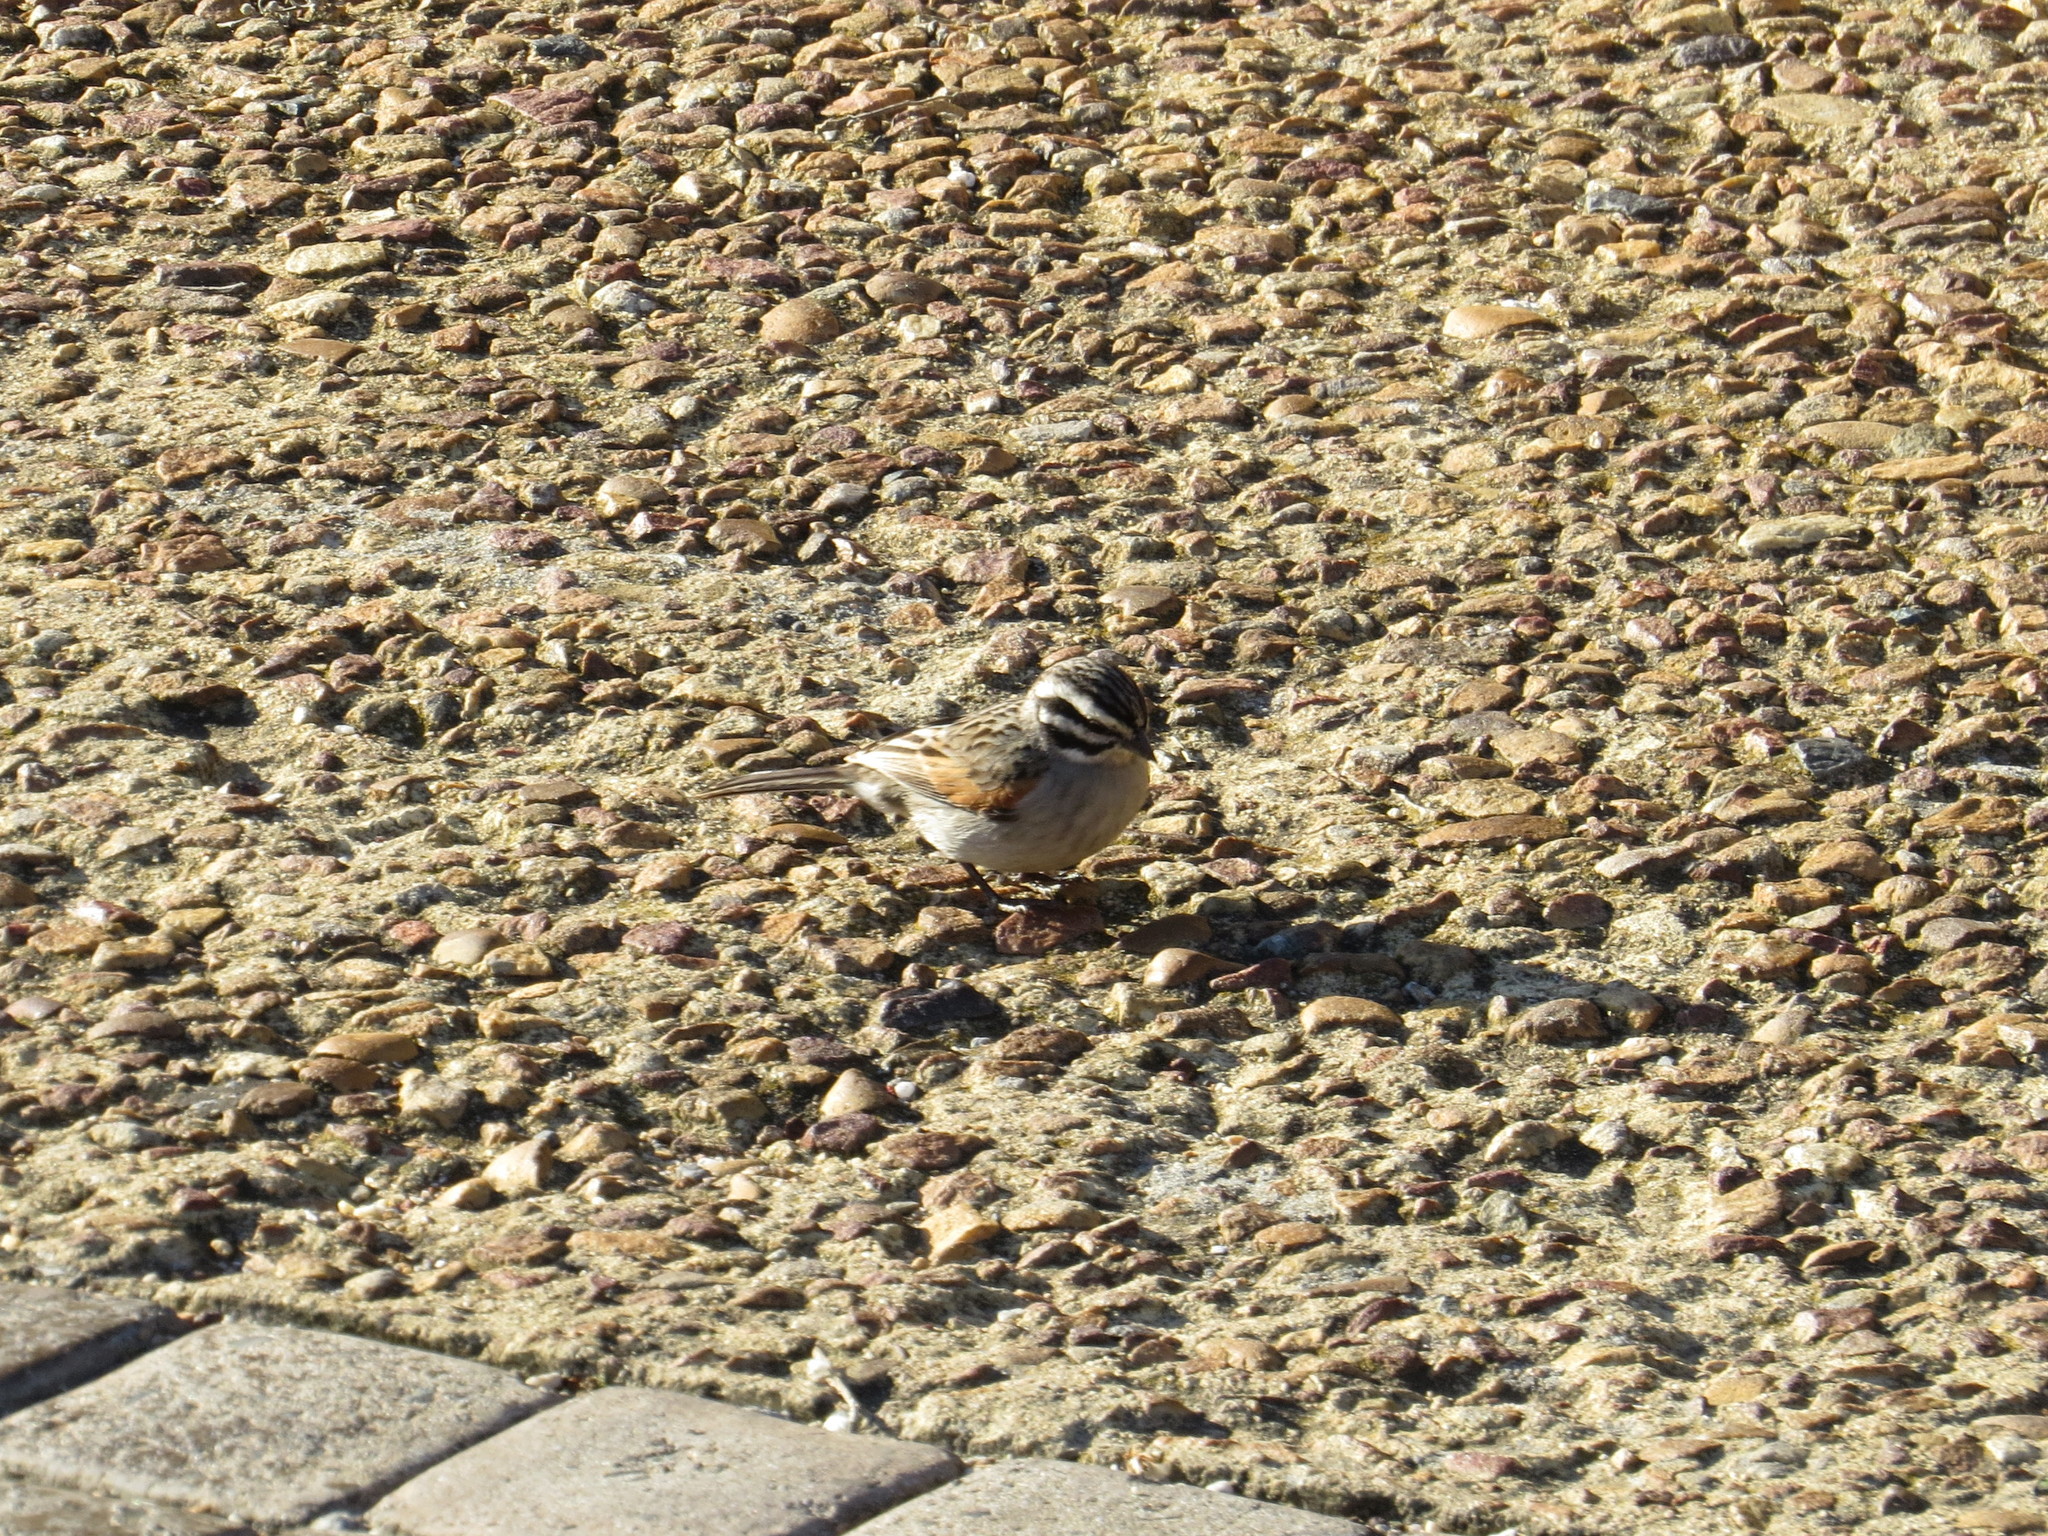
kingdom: Animalia
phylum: Chordata
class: Aves
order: Passeriformes
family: Emberizidae
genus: Emberiza
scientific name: Emberiza capensis
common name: Cape bunting
